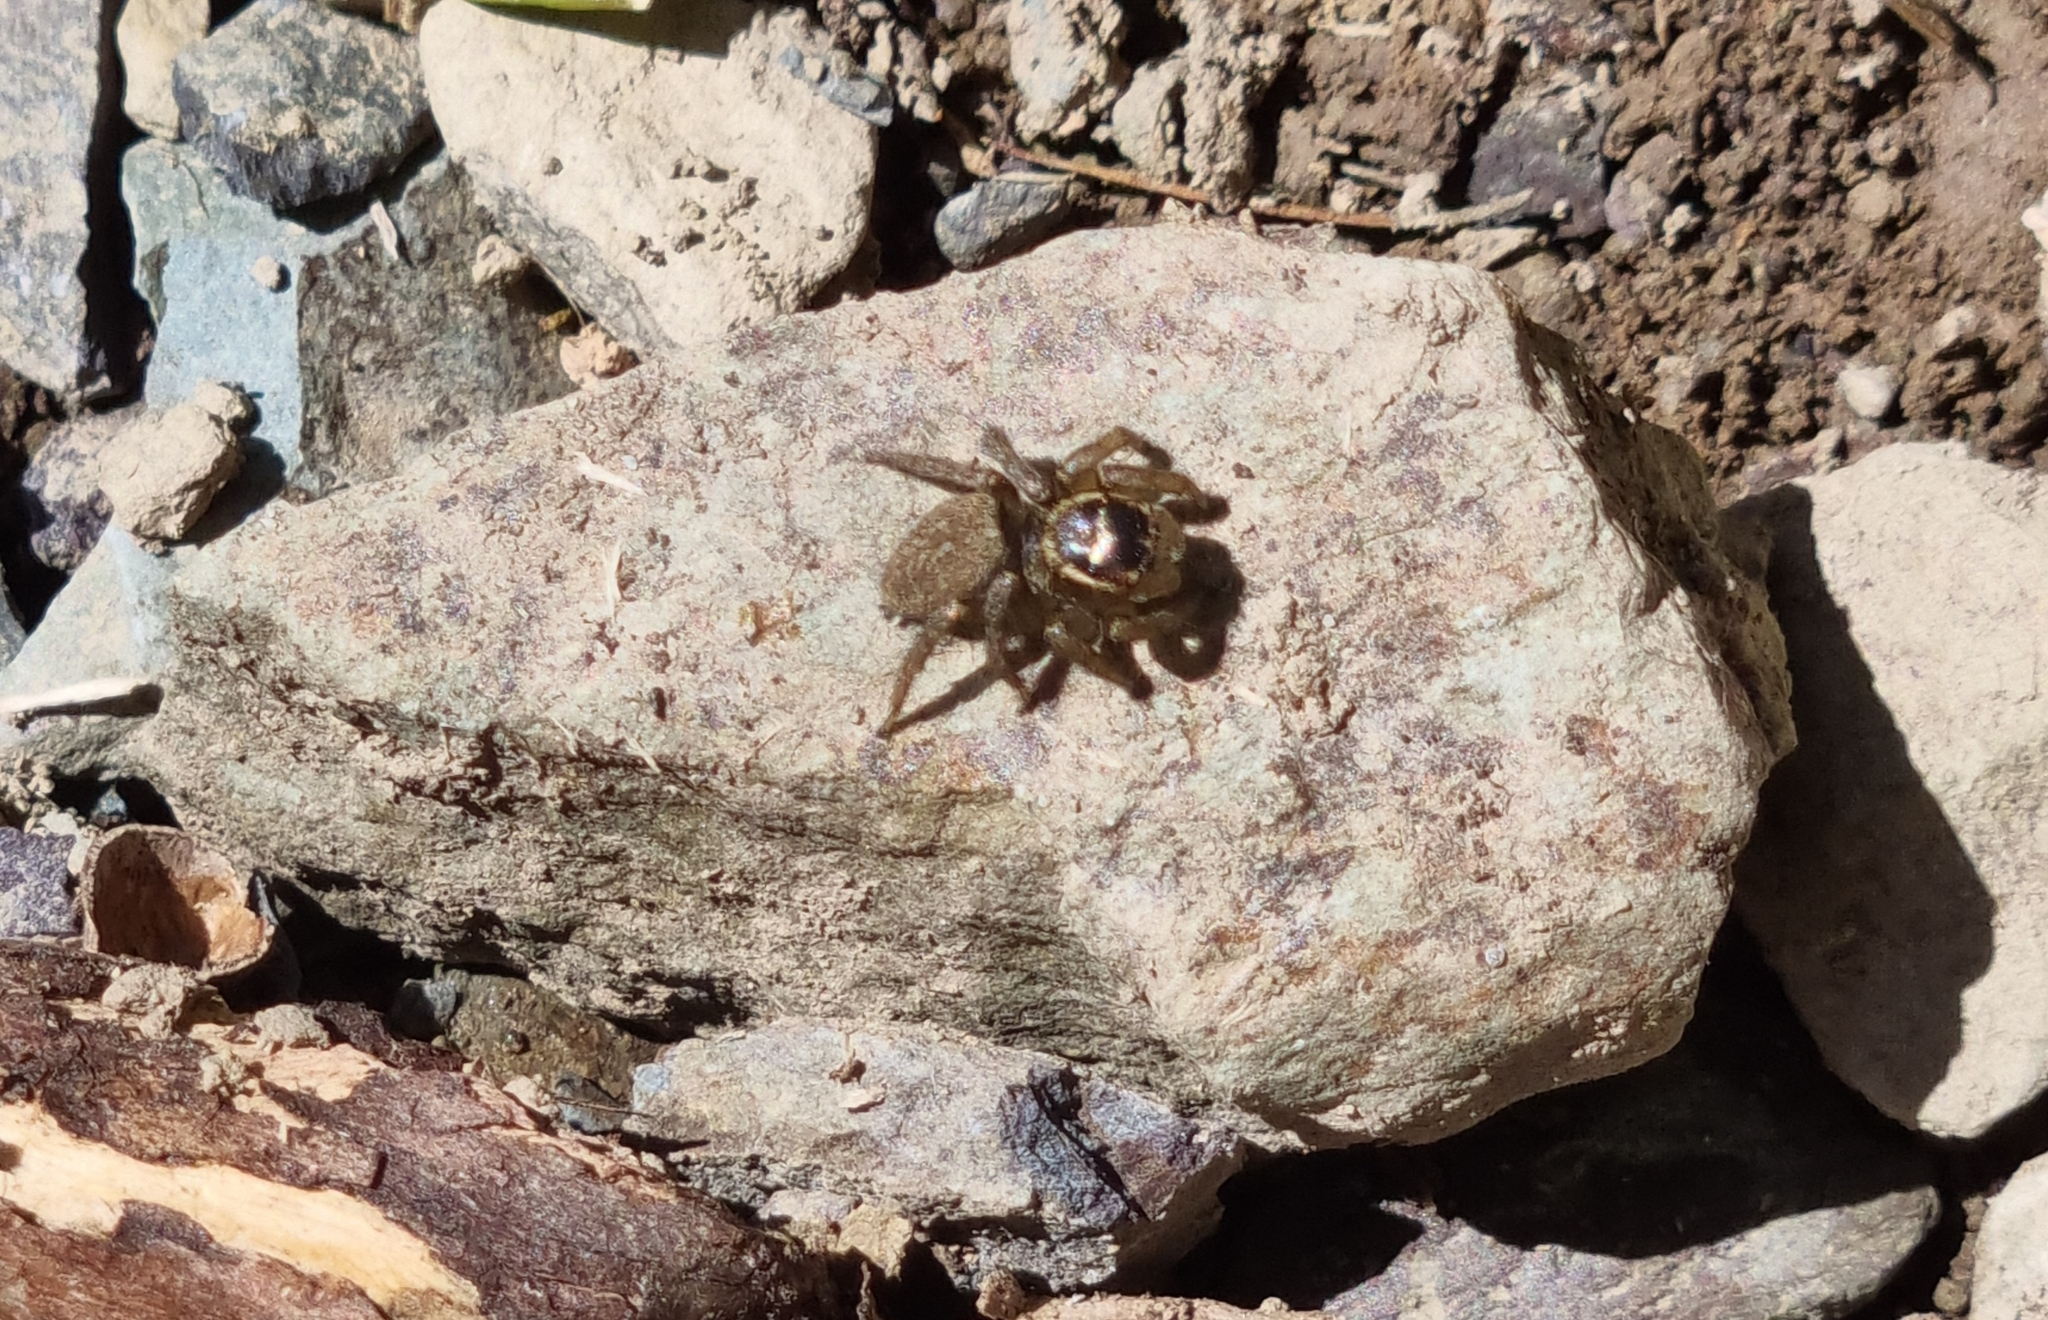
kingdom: Animalia
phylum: Arthropoda
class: Arachnida
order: Araneae
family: Salticidae
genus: Maratus
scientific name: Maratus griseus
